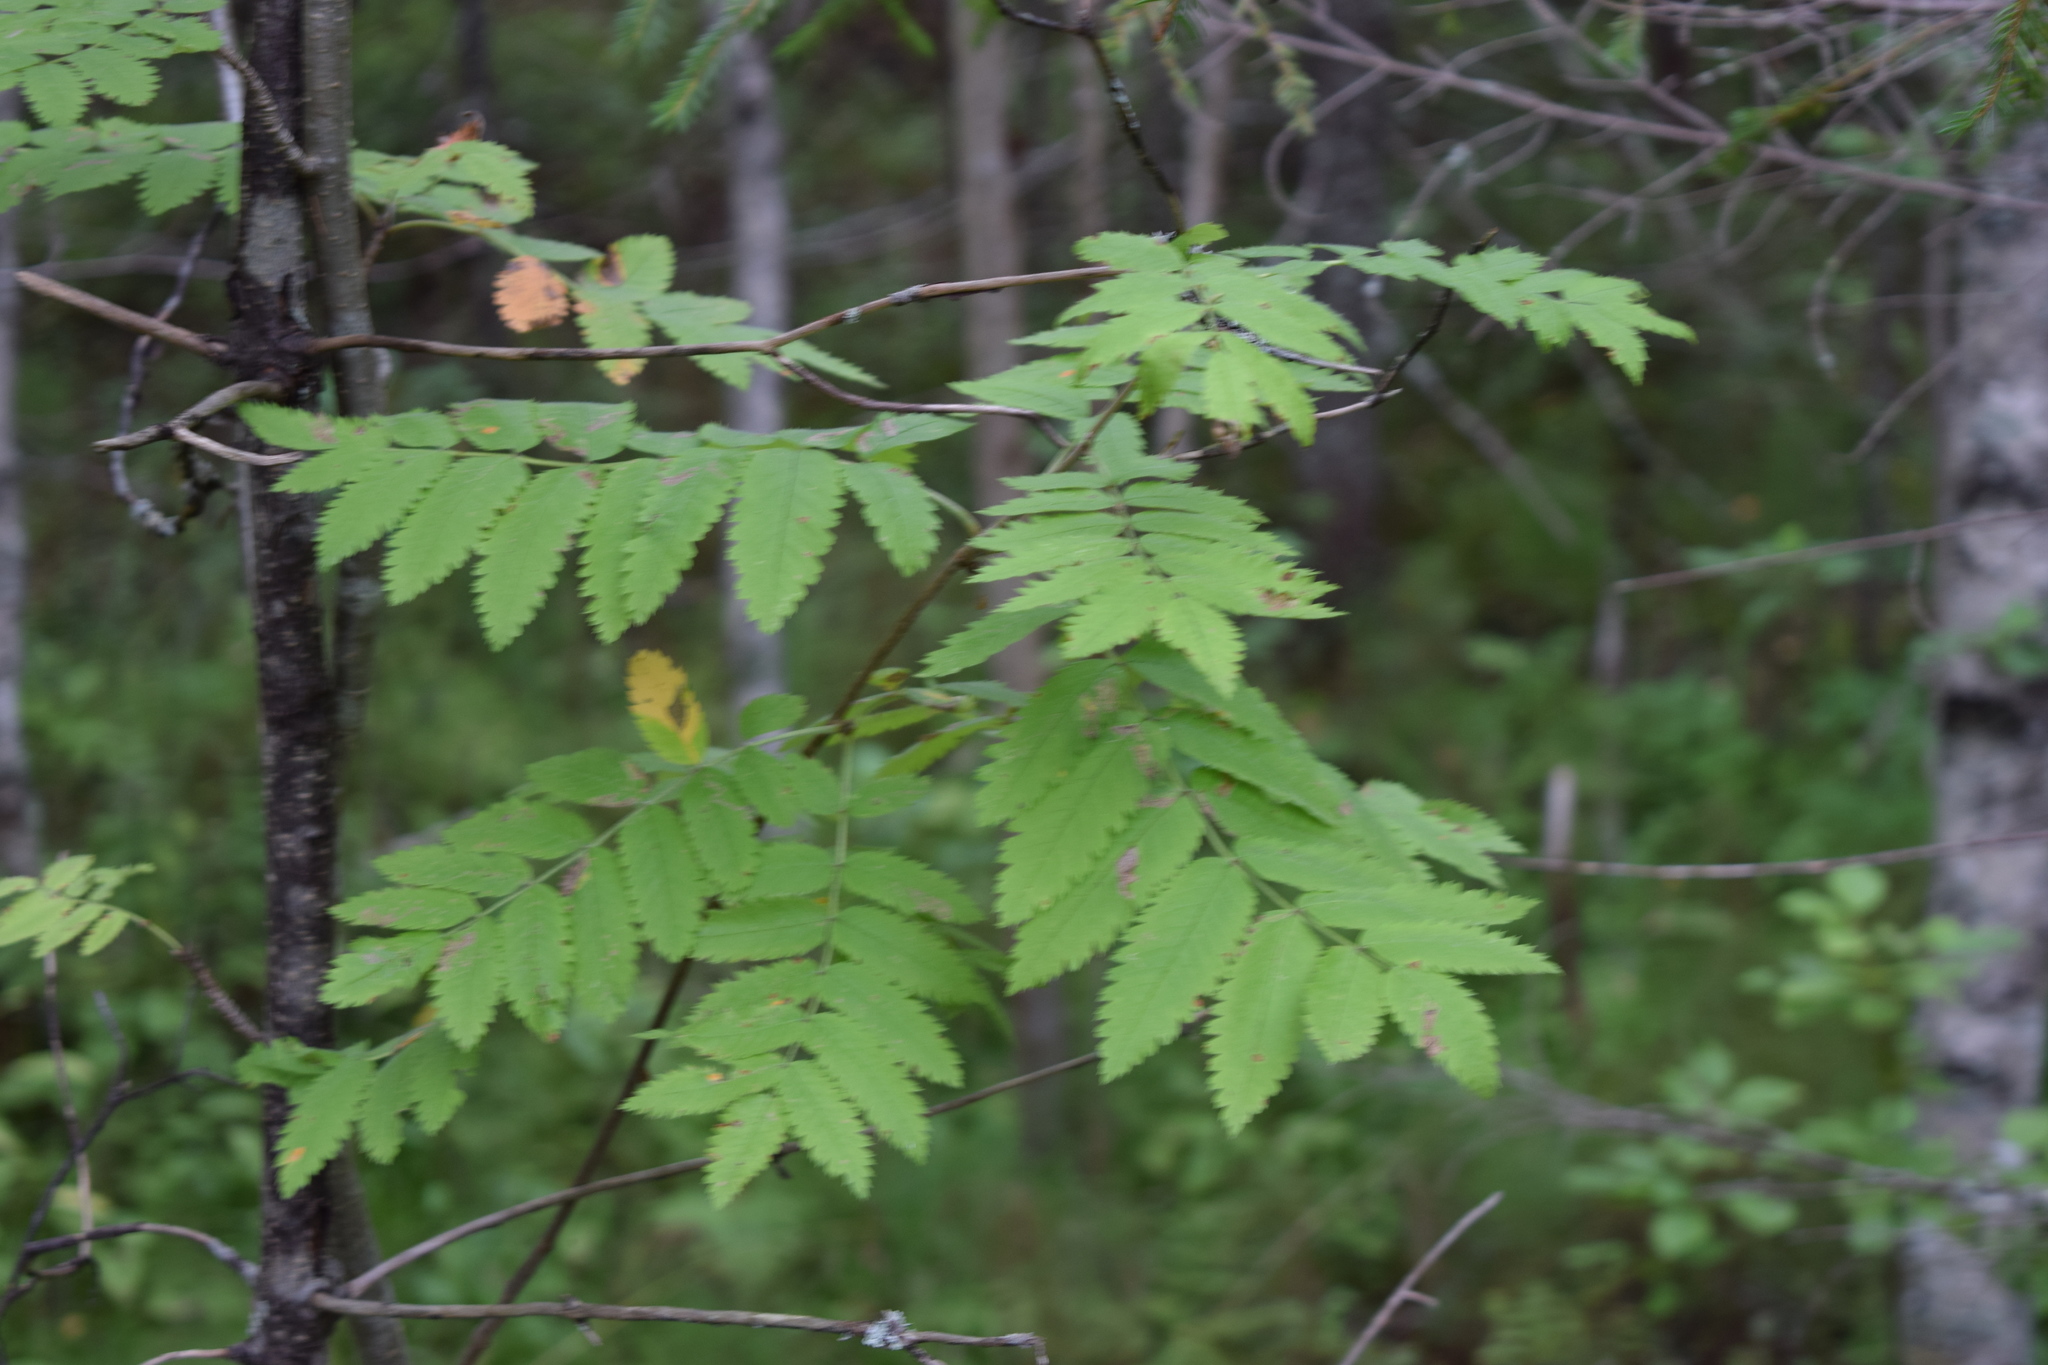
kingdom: Plantae
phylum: Tracheophyta
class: Magnoliopsida
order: Rosales
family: Rosaceae
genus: Sorbus
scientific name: Sorbus aucuparia
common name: Rowan
